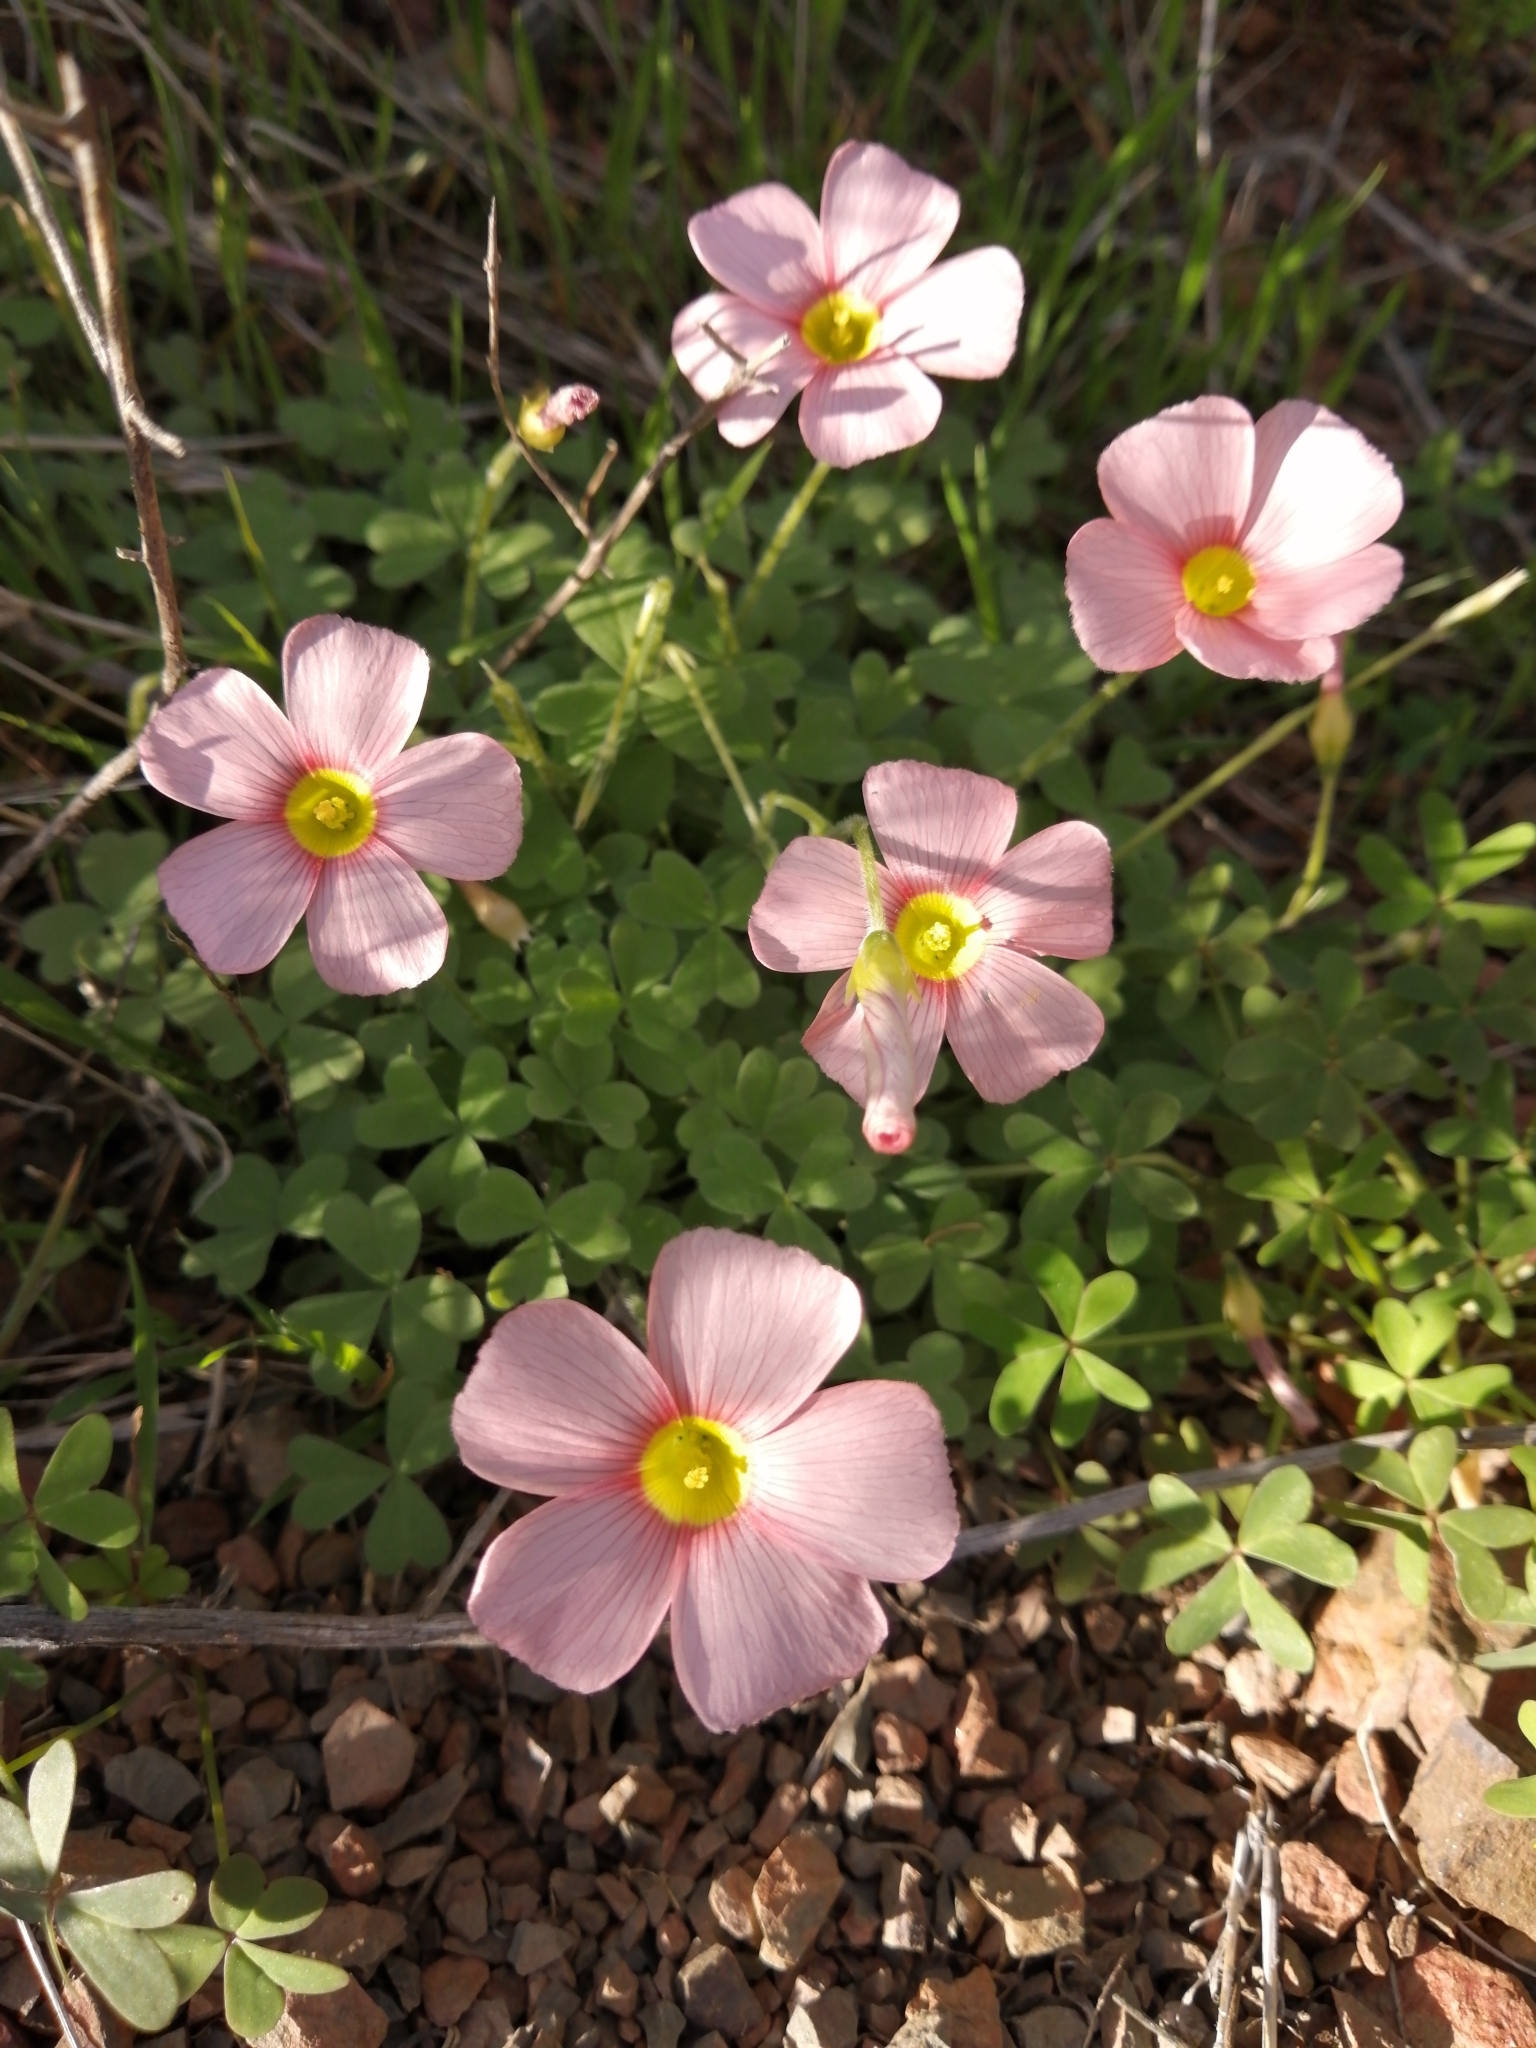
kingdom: Plantae
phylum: Tracheophyta
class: Magnoliopsida
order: Oxalidales
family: Oxalidaceae
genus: Oxalis
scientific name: Oxalis obtusa
